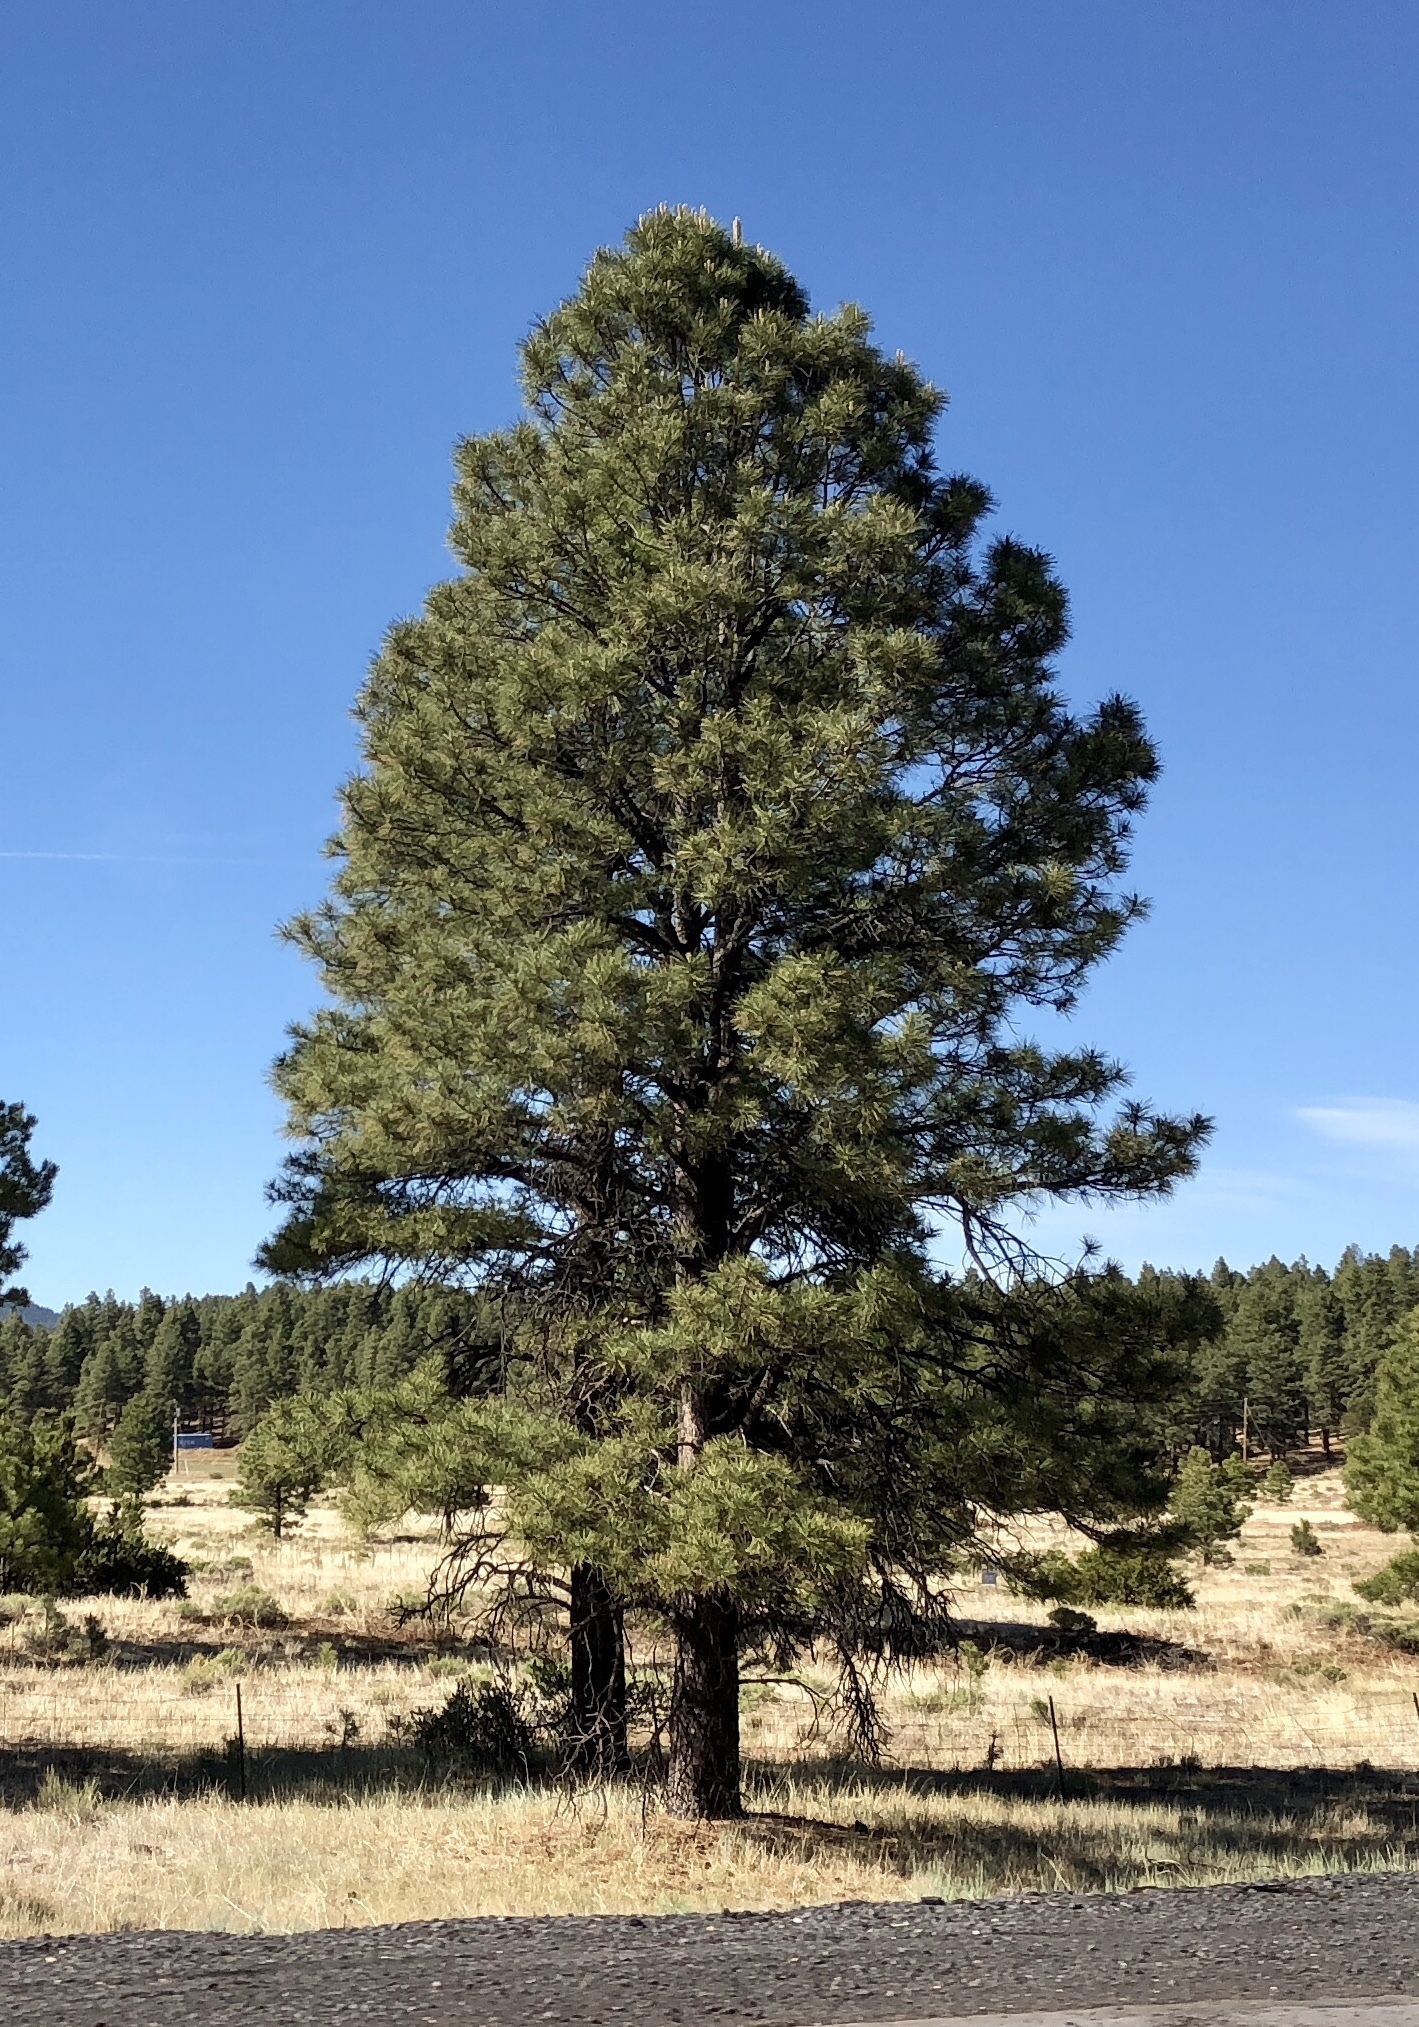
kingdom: Plantae
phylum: Tracheophyta
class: Pinopsida
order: Pinales
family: Pinaceae
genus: Pinus
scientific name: Pinus ponderosa
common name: Western yellow-pine
